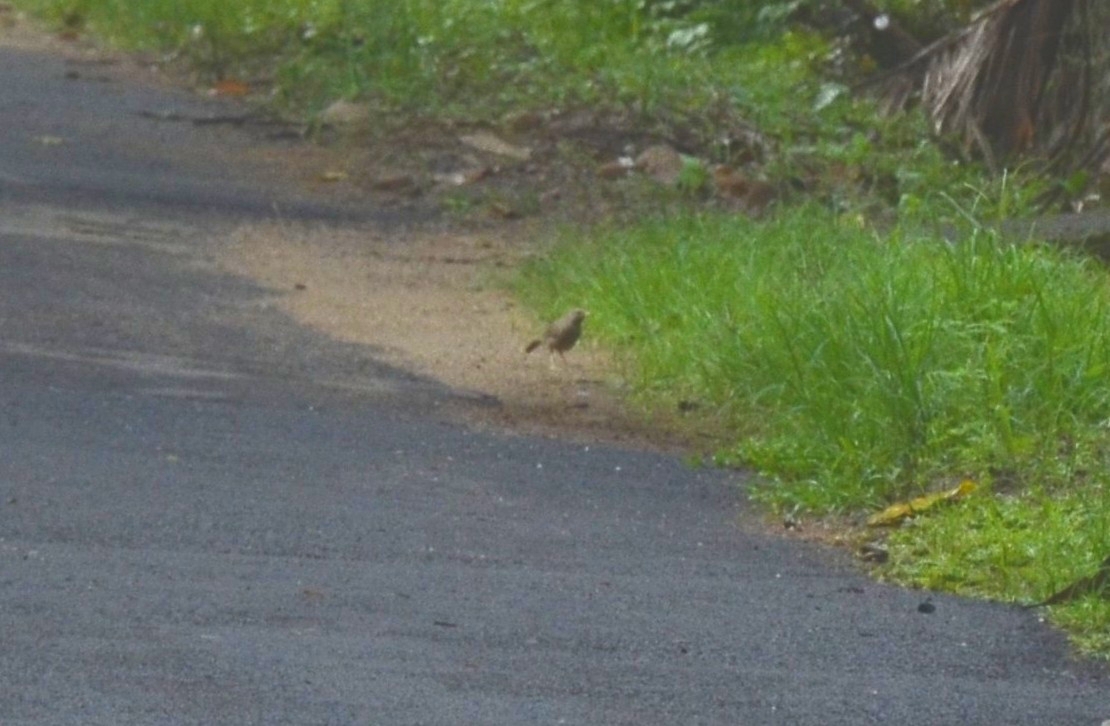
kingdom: Animalia
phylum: Chordata
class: Aves
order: Passeriformes
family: Leiothrichidae
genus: Turdoides
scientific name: Turdoides striata
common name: Jungle babbler
